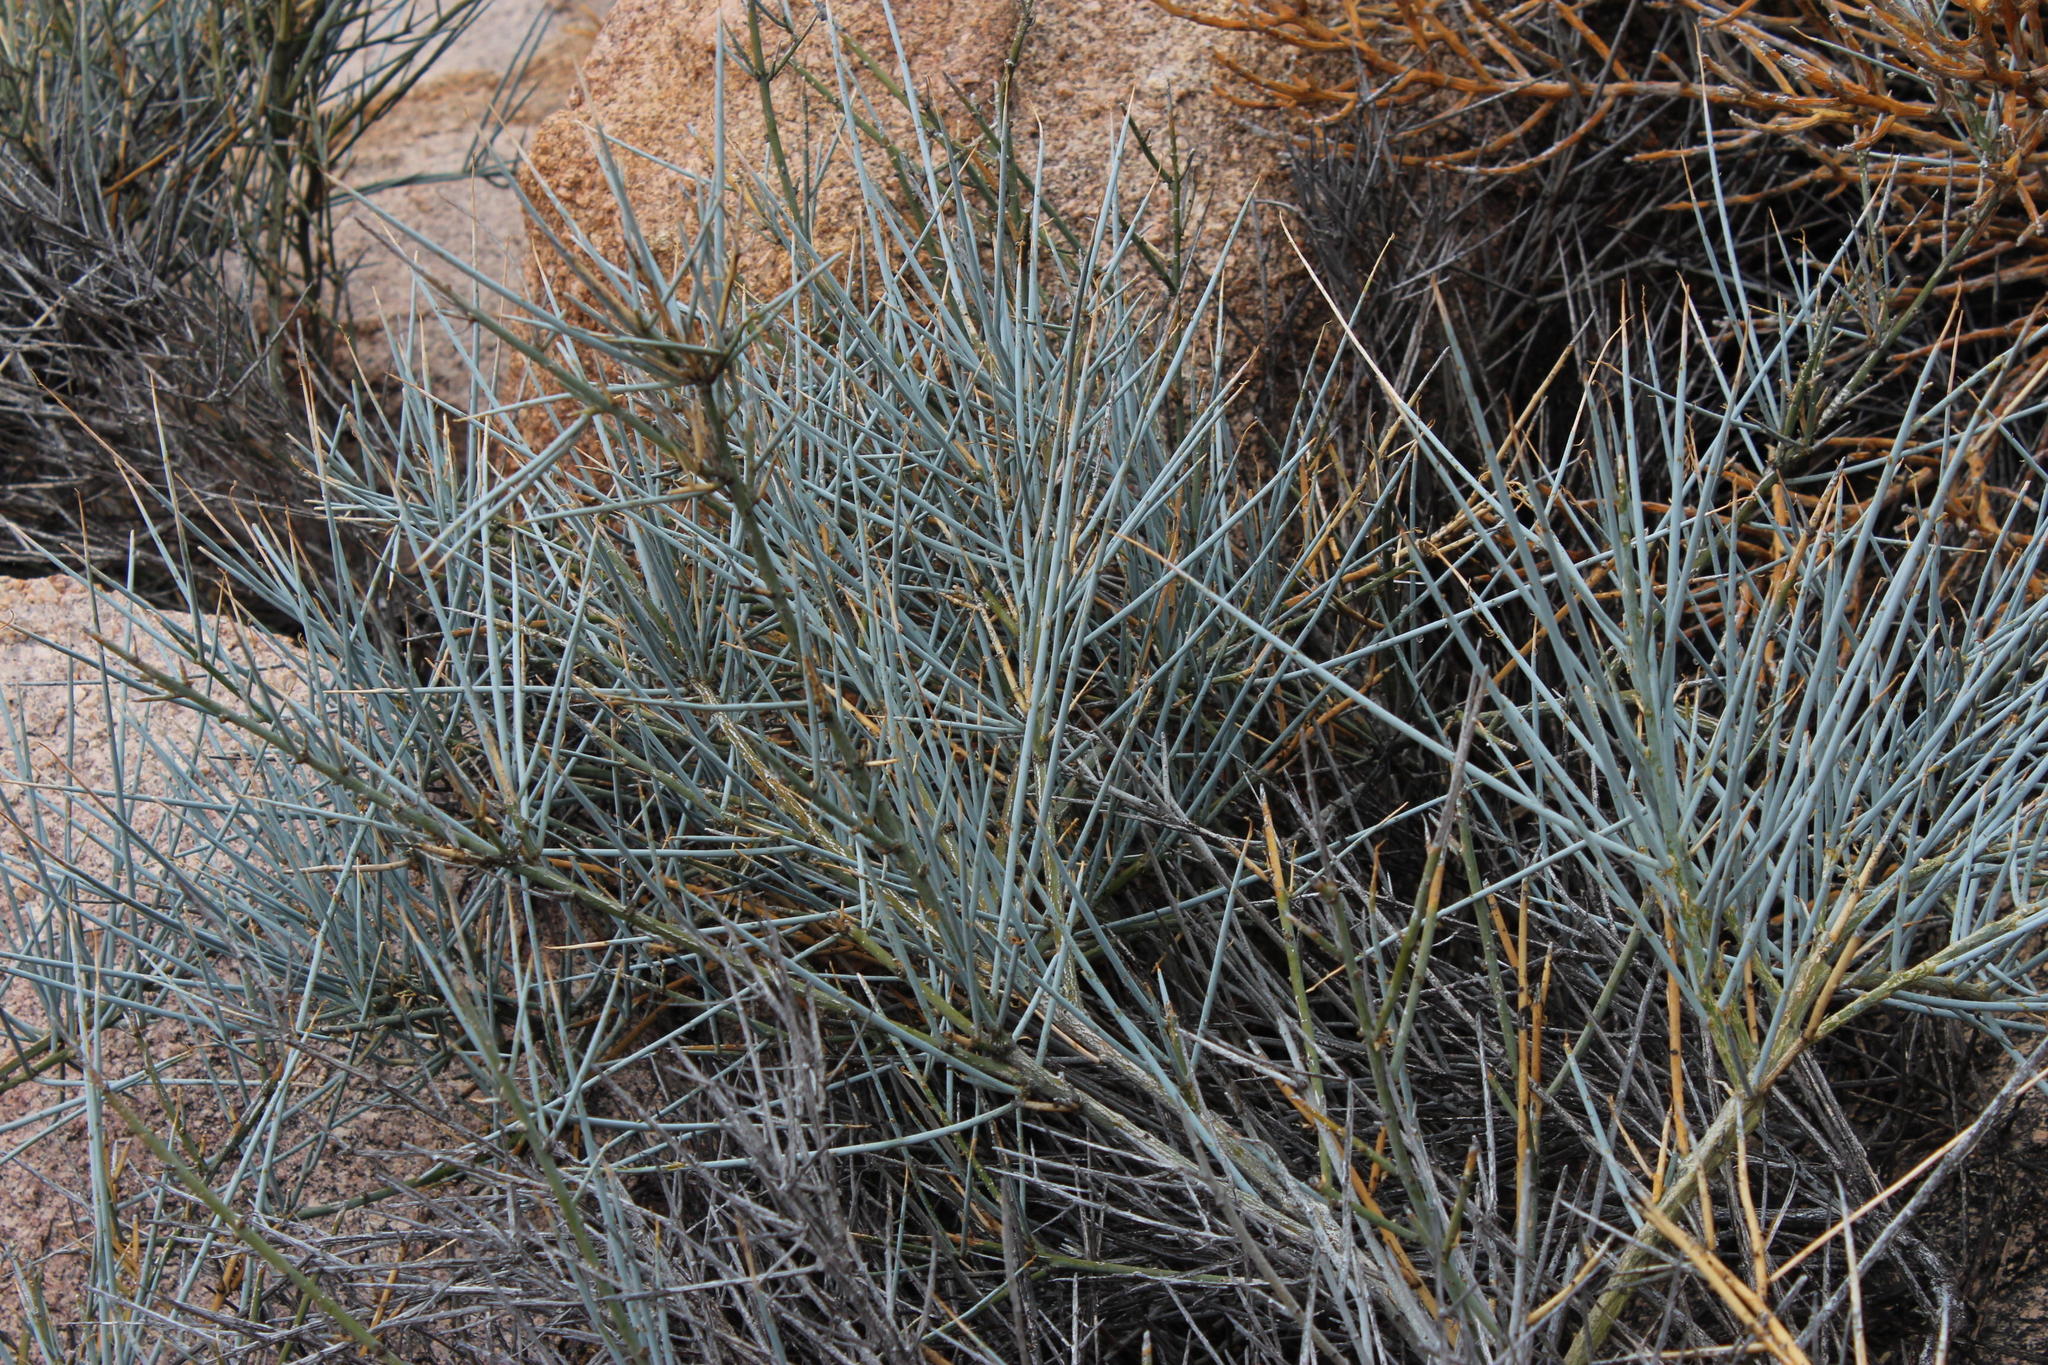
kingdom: Plantae
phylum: Tracheophyta
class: Magnoliopsida
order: Brassicales
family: Capparaceae
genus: Cadaba
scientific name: Cadaba aphylla
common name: Black storm
